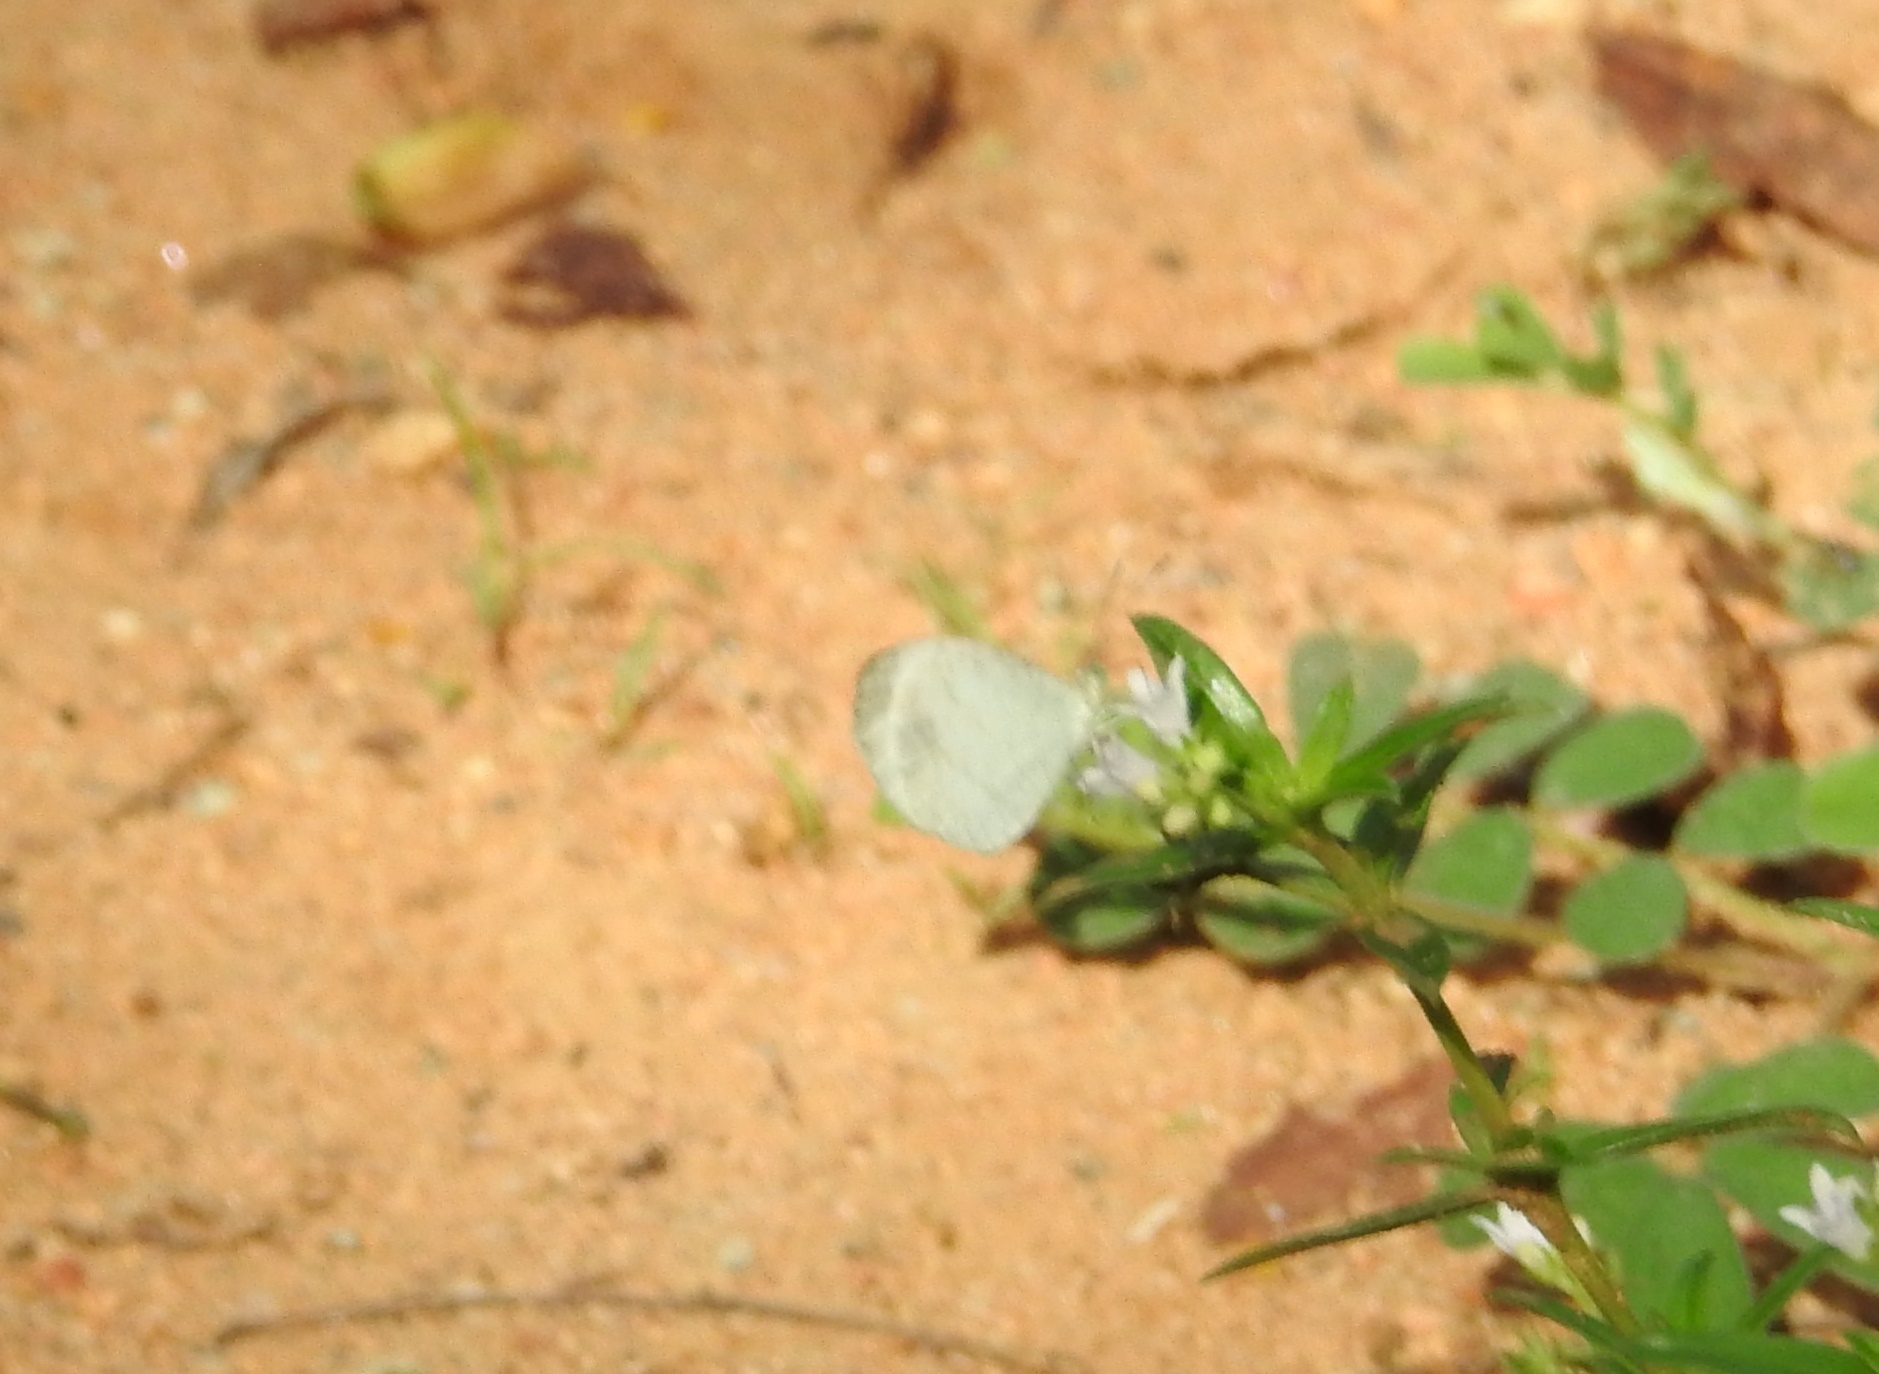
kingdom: Animalia
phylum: Arthropoda
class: Insecta
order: Lepidoptera
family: Pieridae
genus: Leptosia
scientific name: Leptosia nina
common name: Psyche
